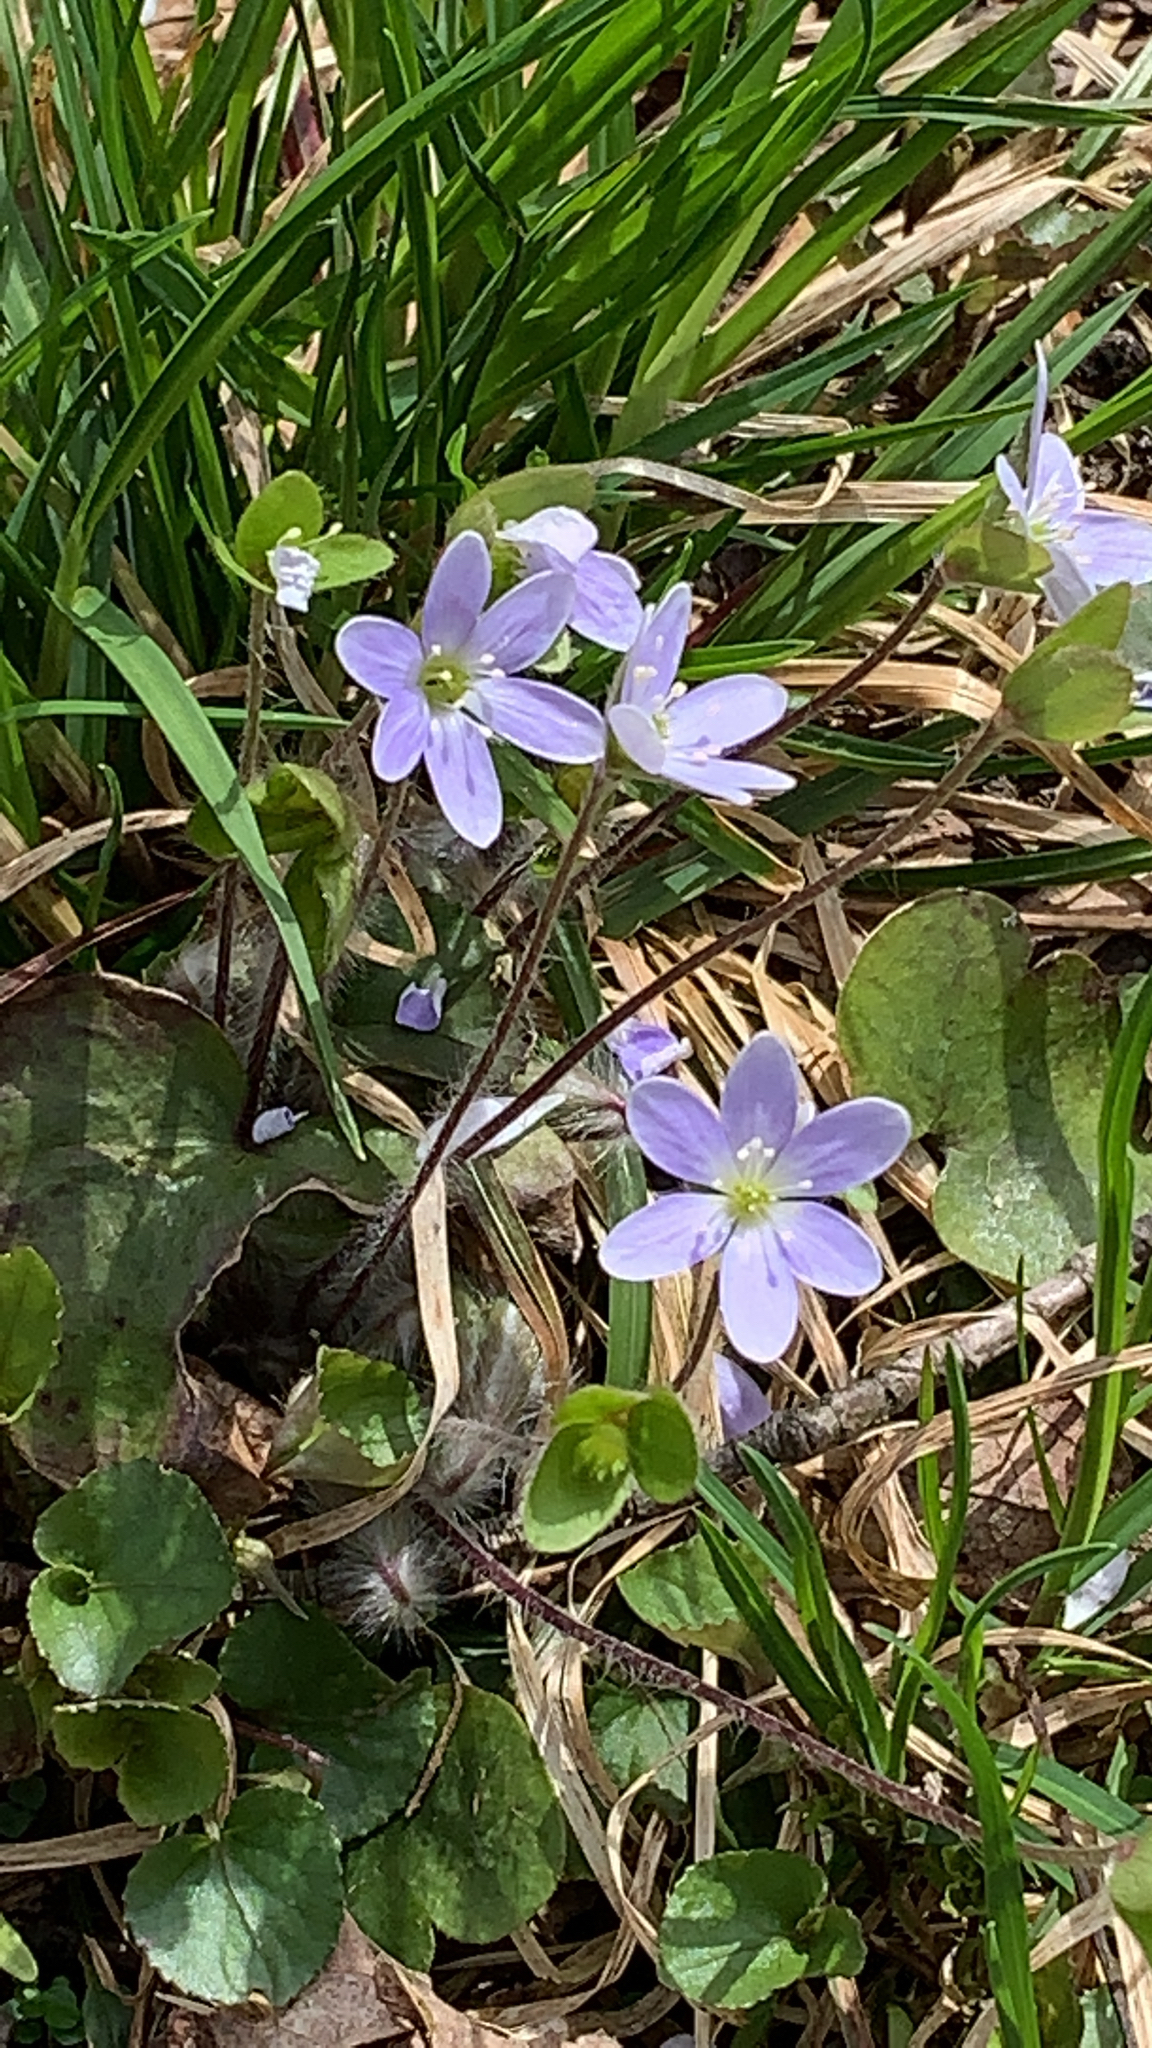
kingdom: Plantae
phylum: Tracheophyta
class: Magnoliopsida
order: Ranunculales
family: Ranunculaceae
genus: Hepatica
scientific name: Hepatica americana
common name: American hepatica
